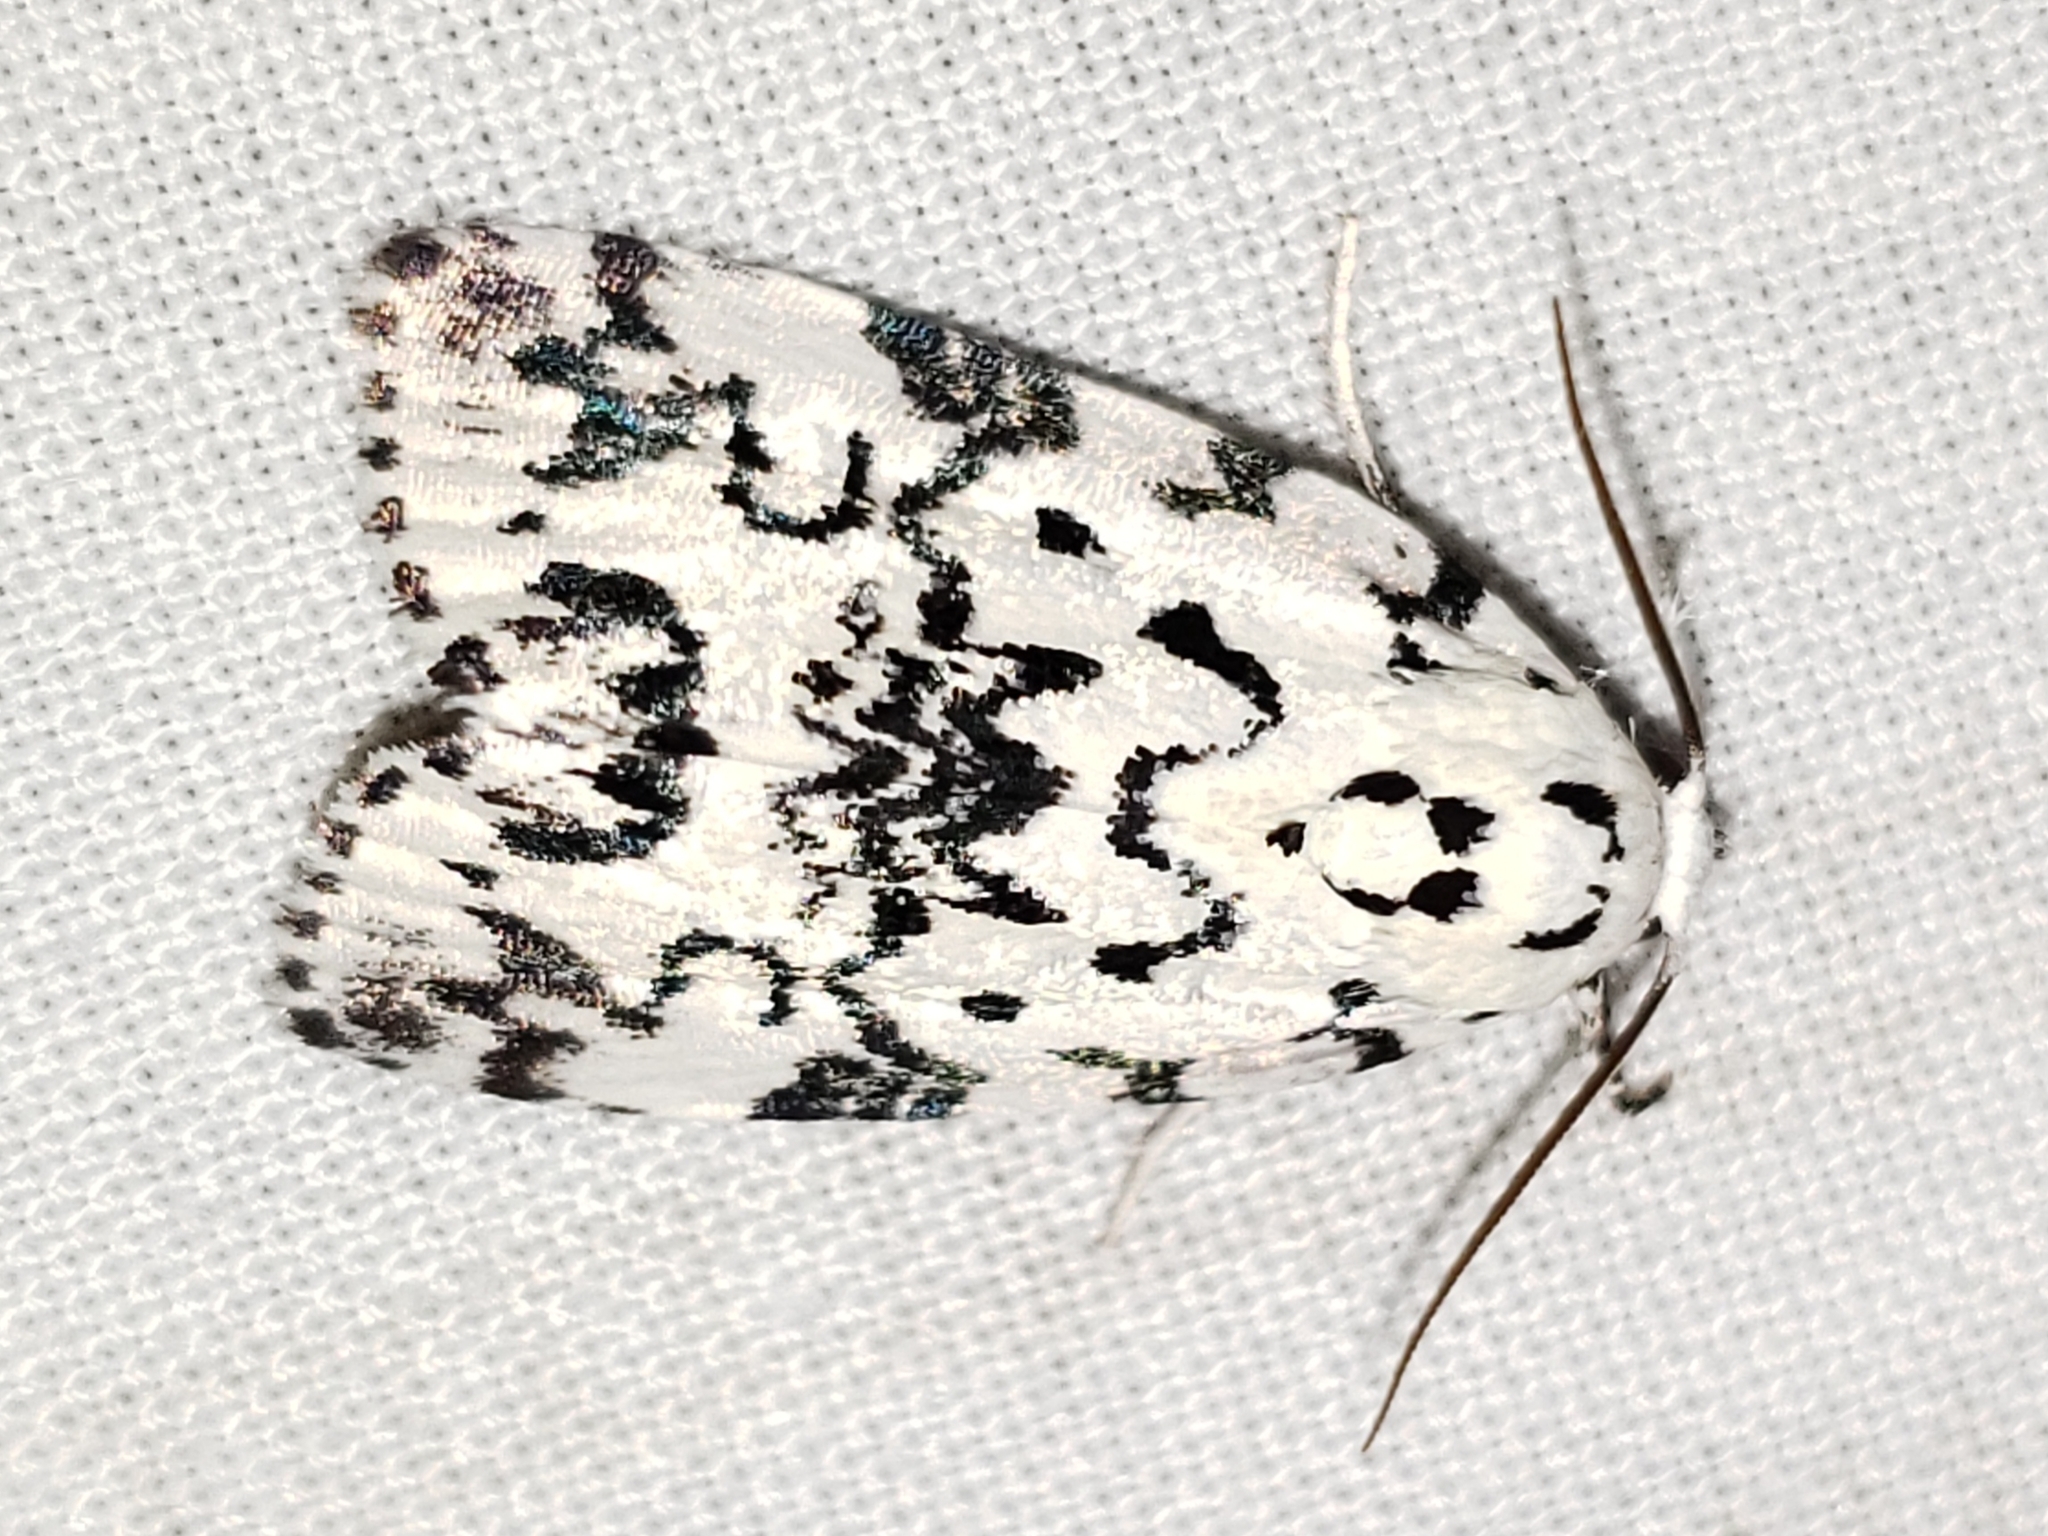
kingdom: Animalia
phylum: Arthropoda
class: Insecta
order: Lepidoptera
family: Noctuidae
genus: Polygrammate
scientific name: Polygrammate hebraeicum
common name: Hebrew moth
